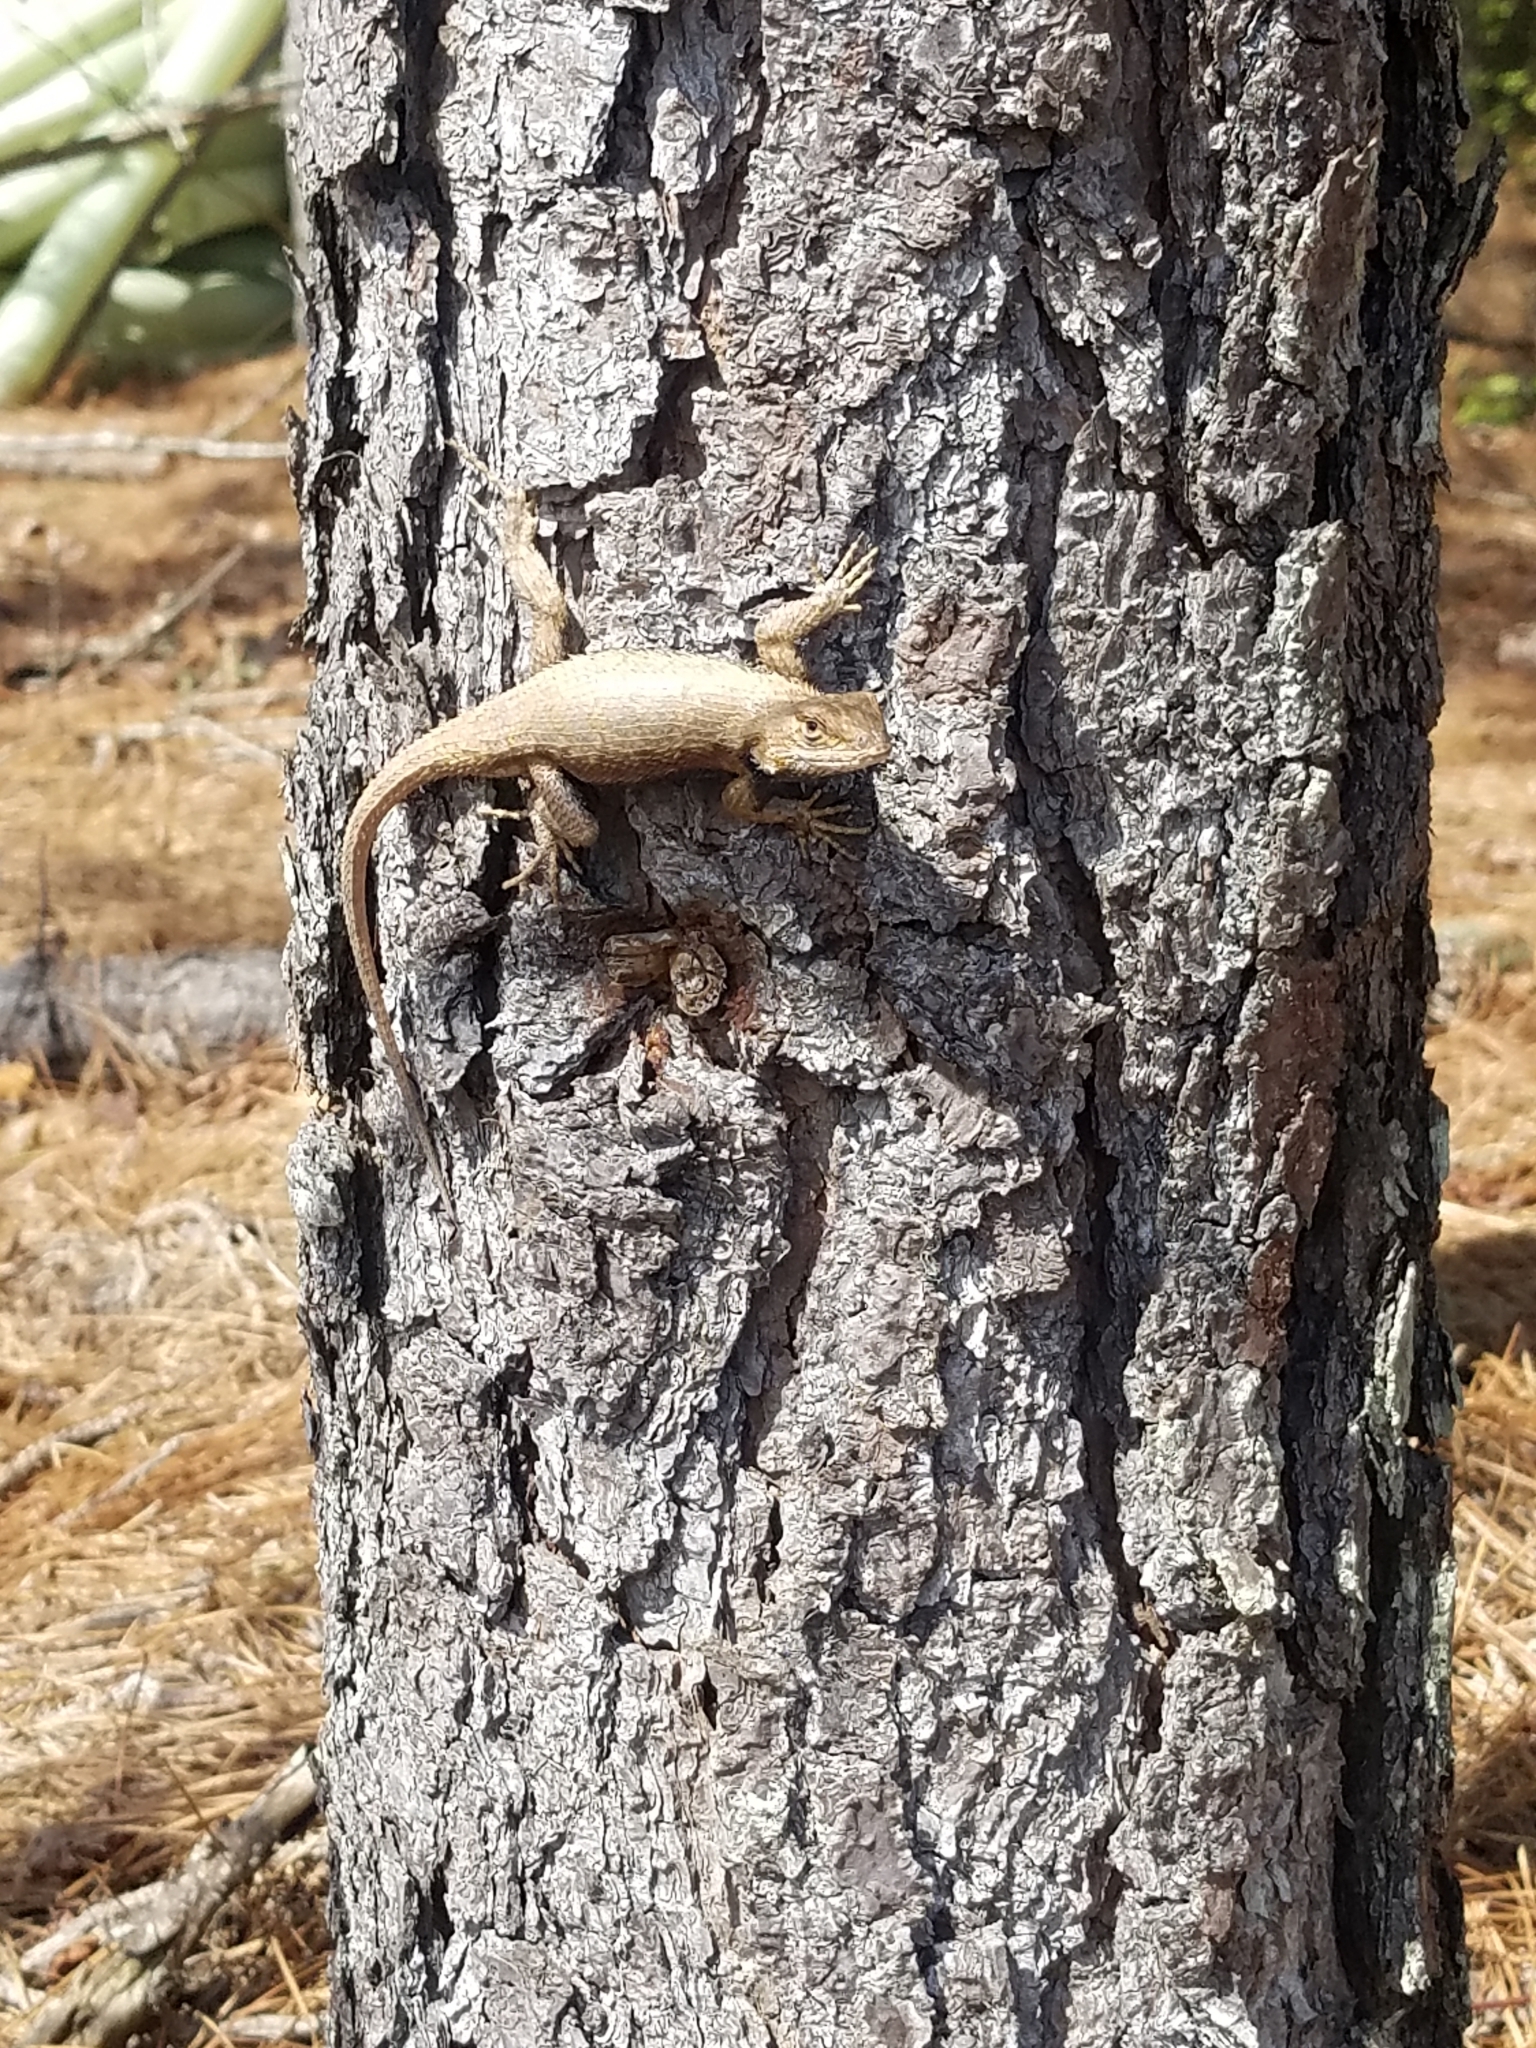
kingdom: Animalia
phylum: Chordata
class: Squamata
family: Phrynosomatidae
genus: Sceloporus
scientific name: Sceloporus undulatus
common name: Eastern fence lizard
